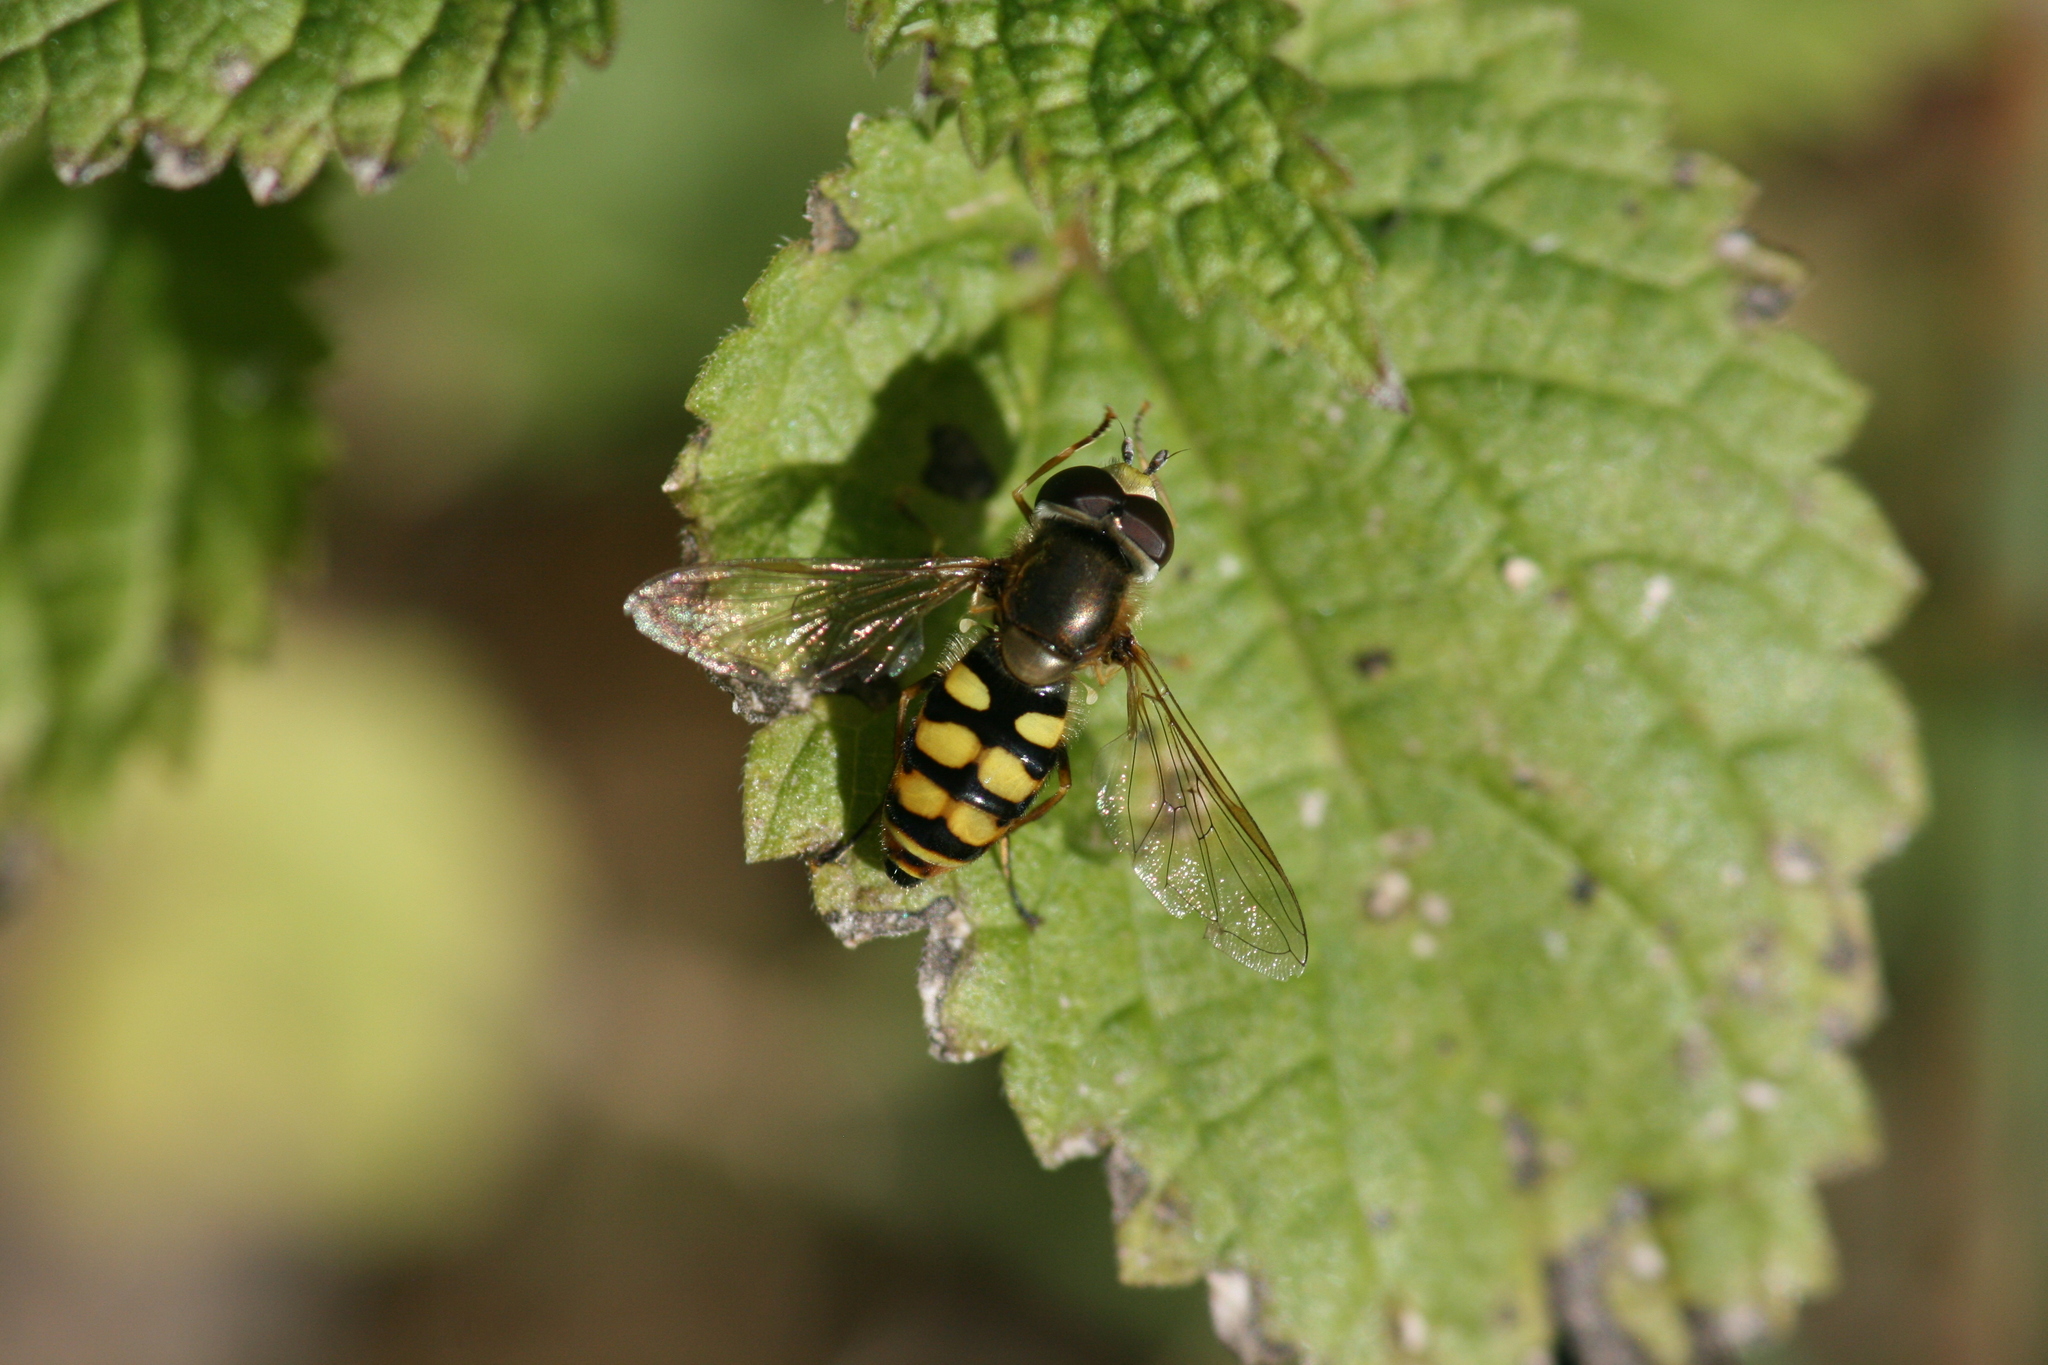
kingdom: Animalia
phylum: Arthropoda
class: Insecta
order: Diptera
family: Syrphidae
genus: Eupeodes
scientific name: Eupeodes corollae
